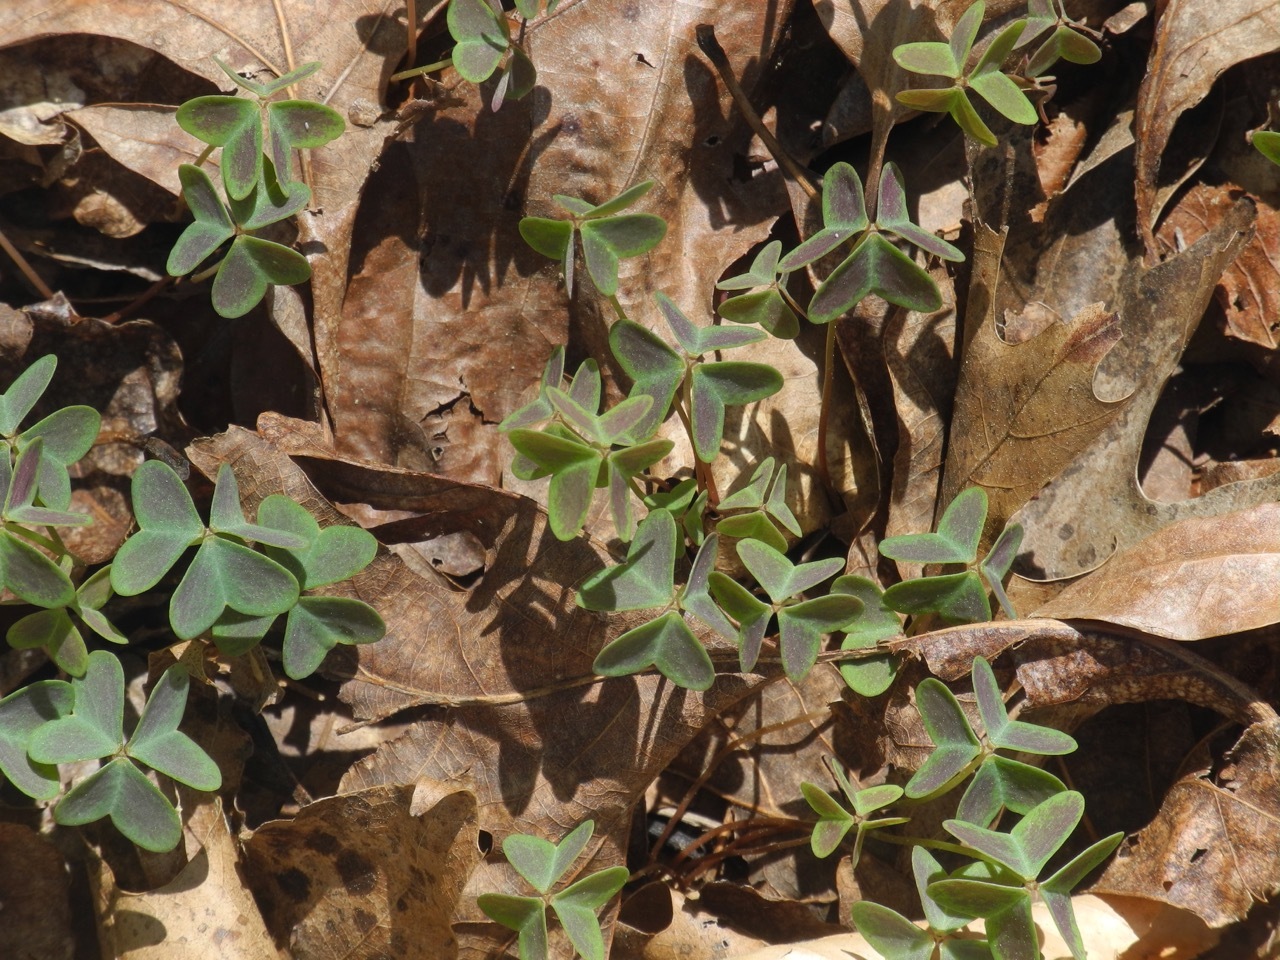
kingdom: Plantae
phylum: Tracheophyta
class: Magnoliopsida
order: Oxalidales
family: Oxalidaceae
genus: Oxalis
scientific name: Oxalis violacea
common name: Violet wood-sorrel
